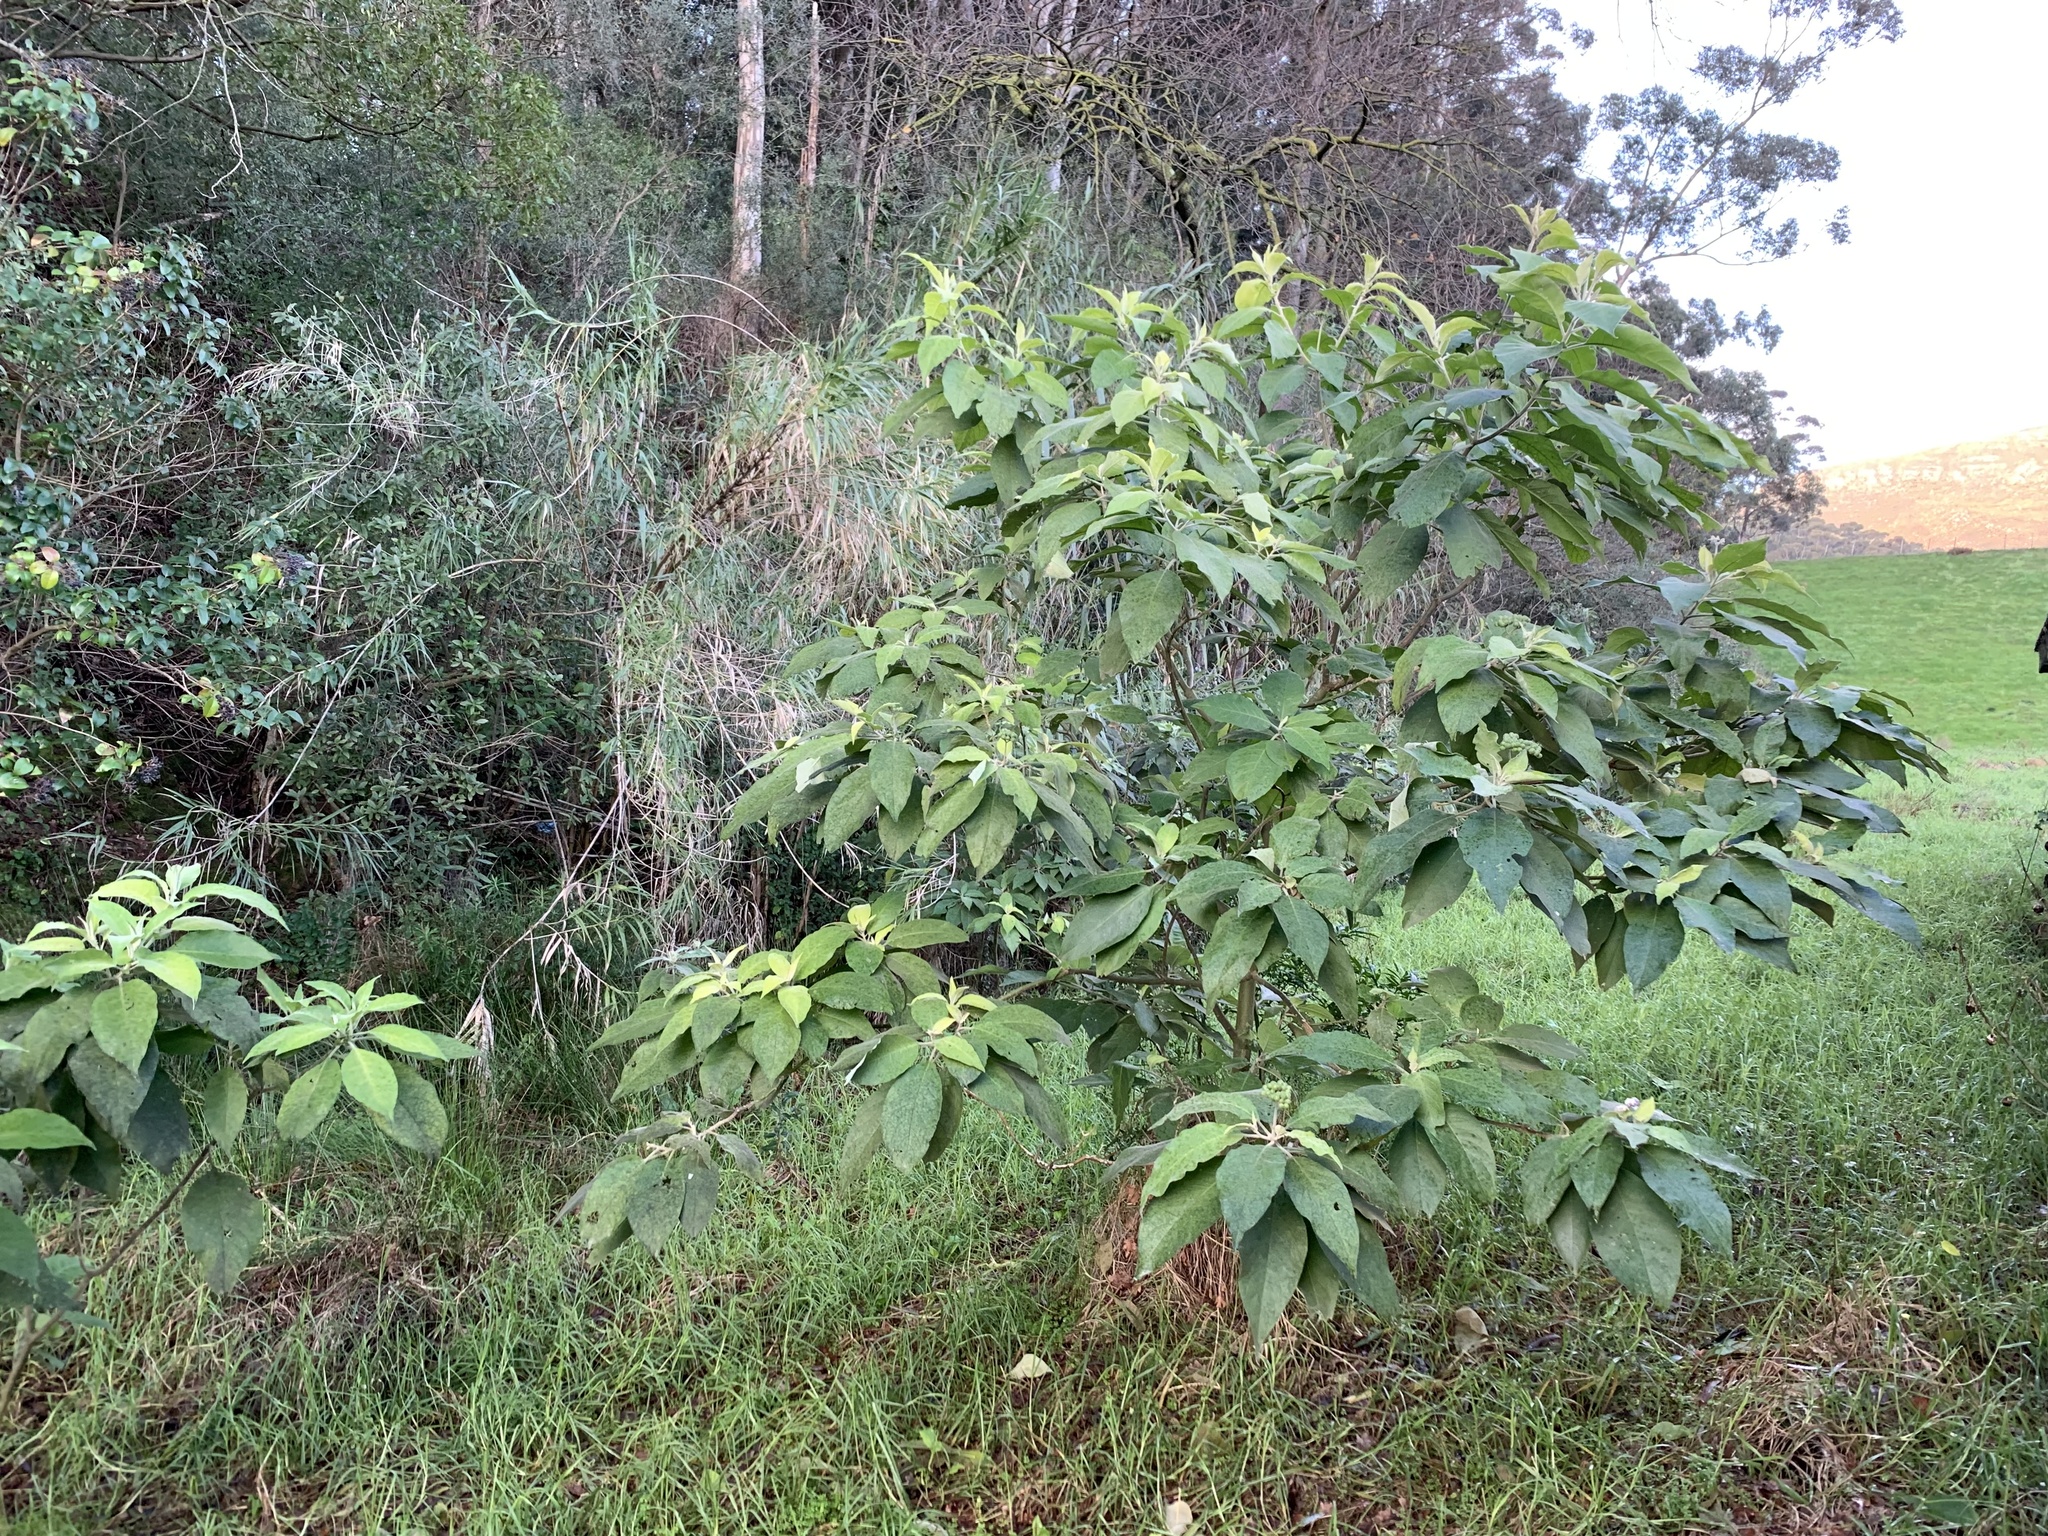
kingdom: Plantae
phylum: Tracheophyta
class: Magnoliopsida
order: Solanales
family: Solanaceae
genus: Solanum
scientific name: Solanum mauritianum
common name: Earleaf nightshade
